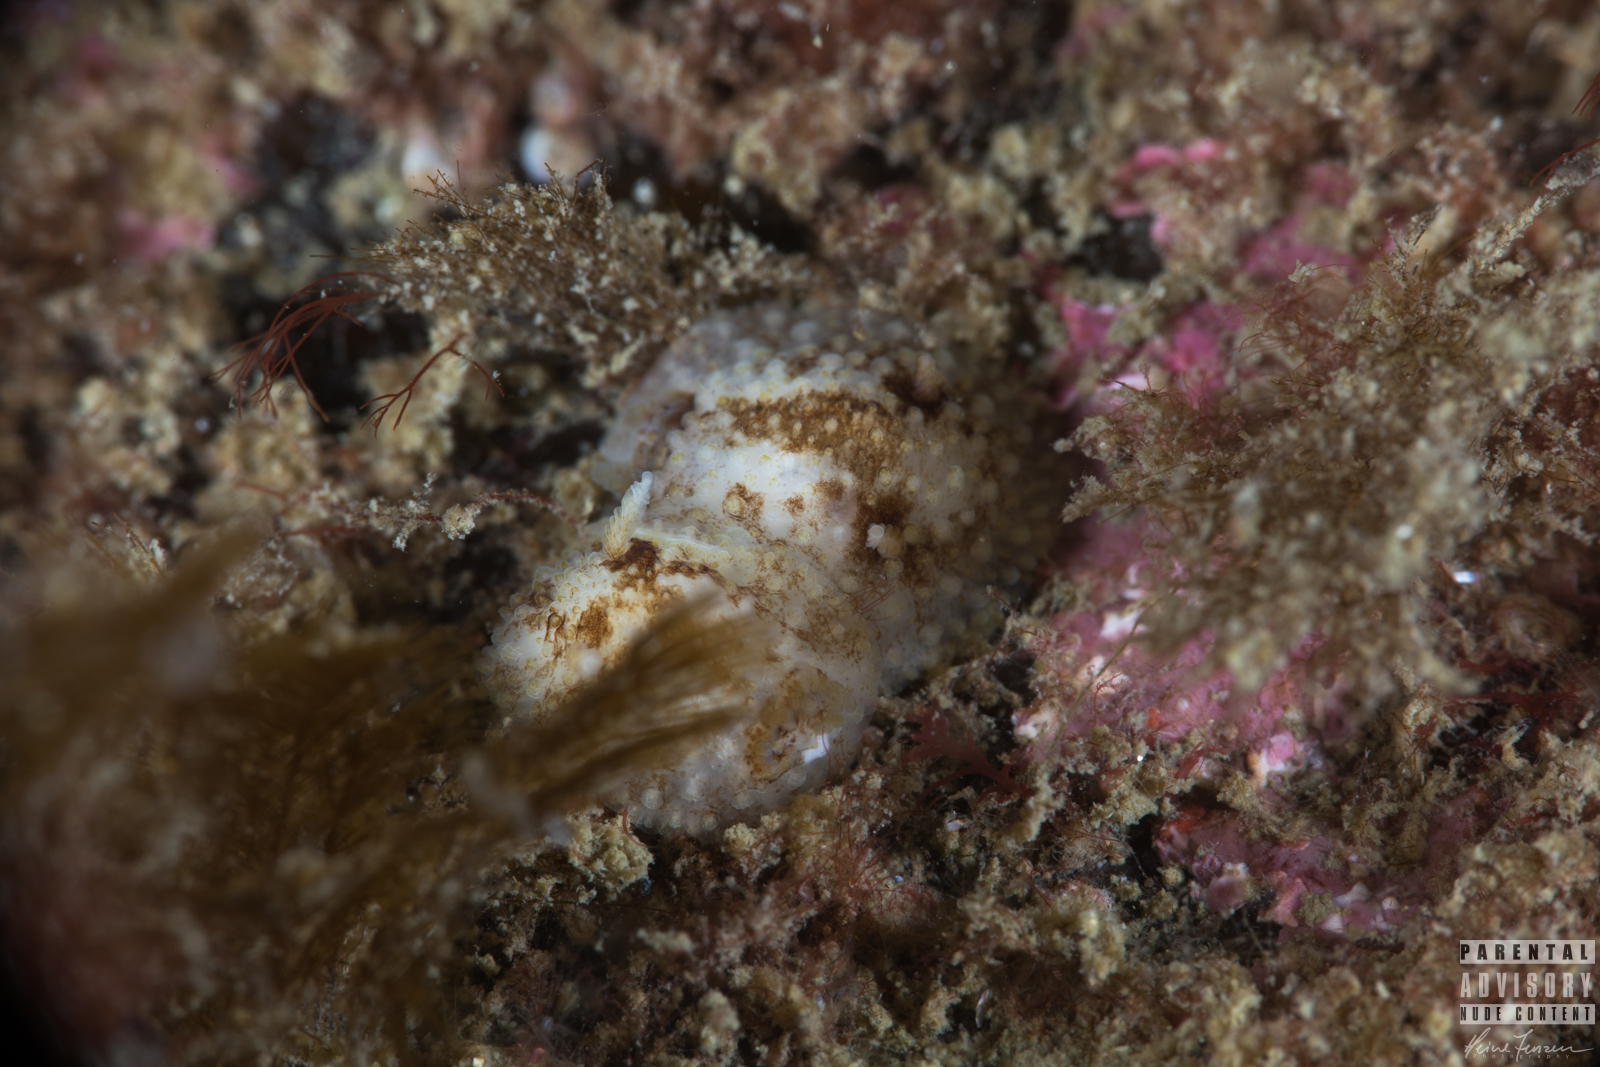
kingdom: Animalia
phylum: Mollusca
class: Gastropoda
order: Nudibranchia
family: Onchidorididae
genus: Onchidoris
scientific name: Onchidoris bilamellata
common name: Barnacle-eating onchidoris
